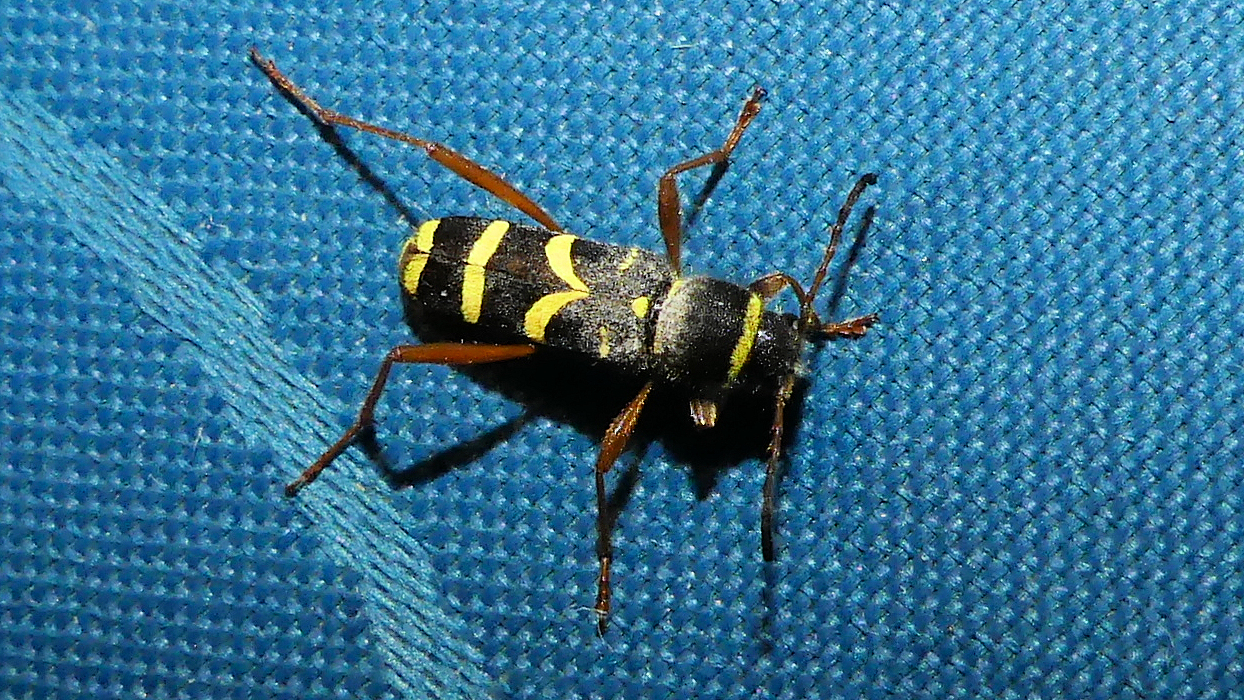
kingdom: Animalia
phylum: Arthropoda
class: Insecta
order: Coleoptera
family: Cerambycidae
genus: Clytus
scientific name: Clytus arietis
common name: Wasp beetle
